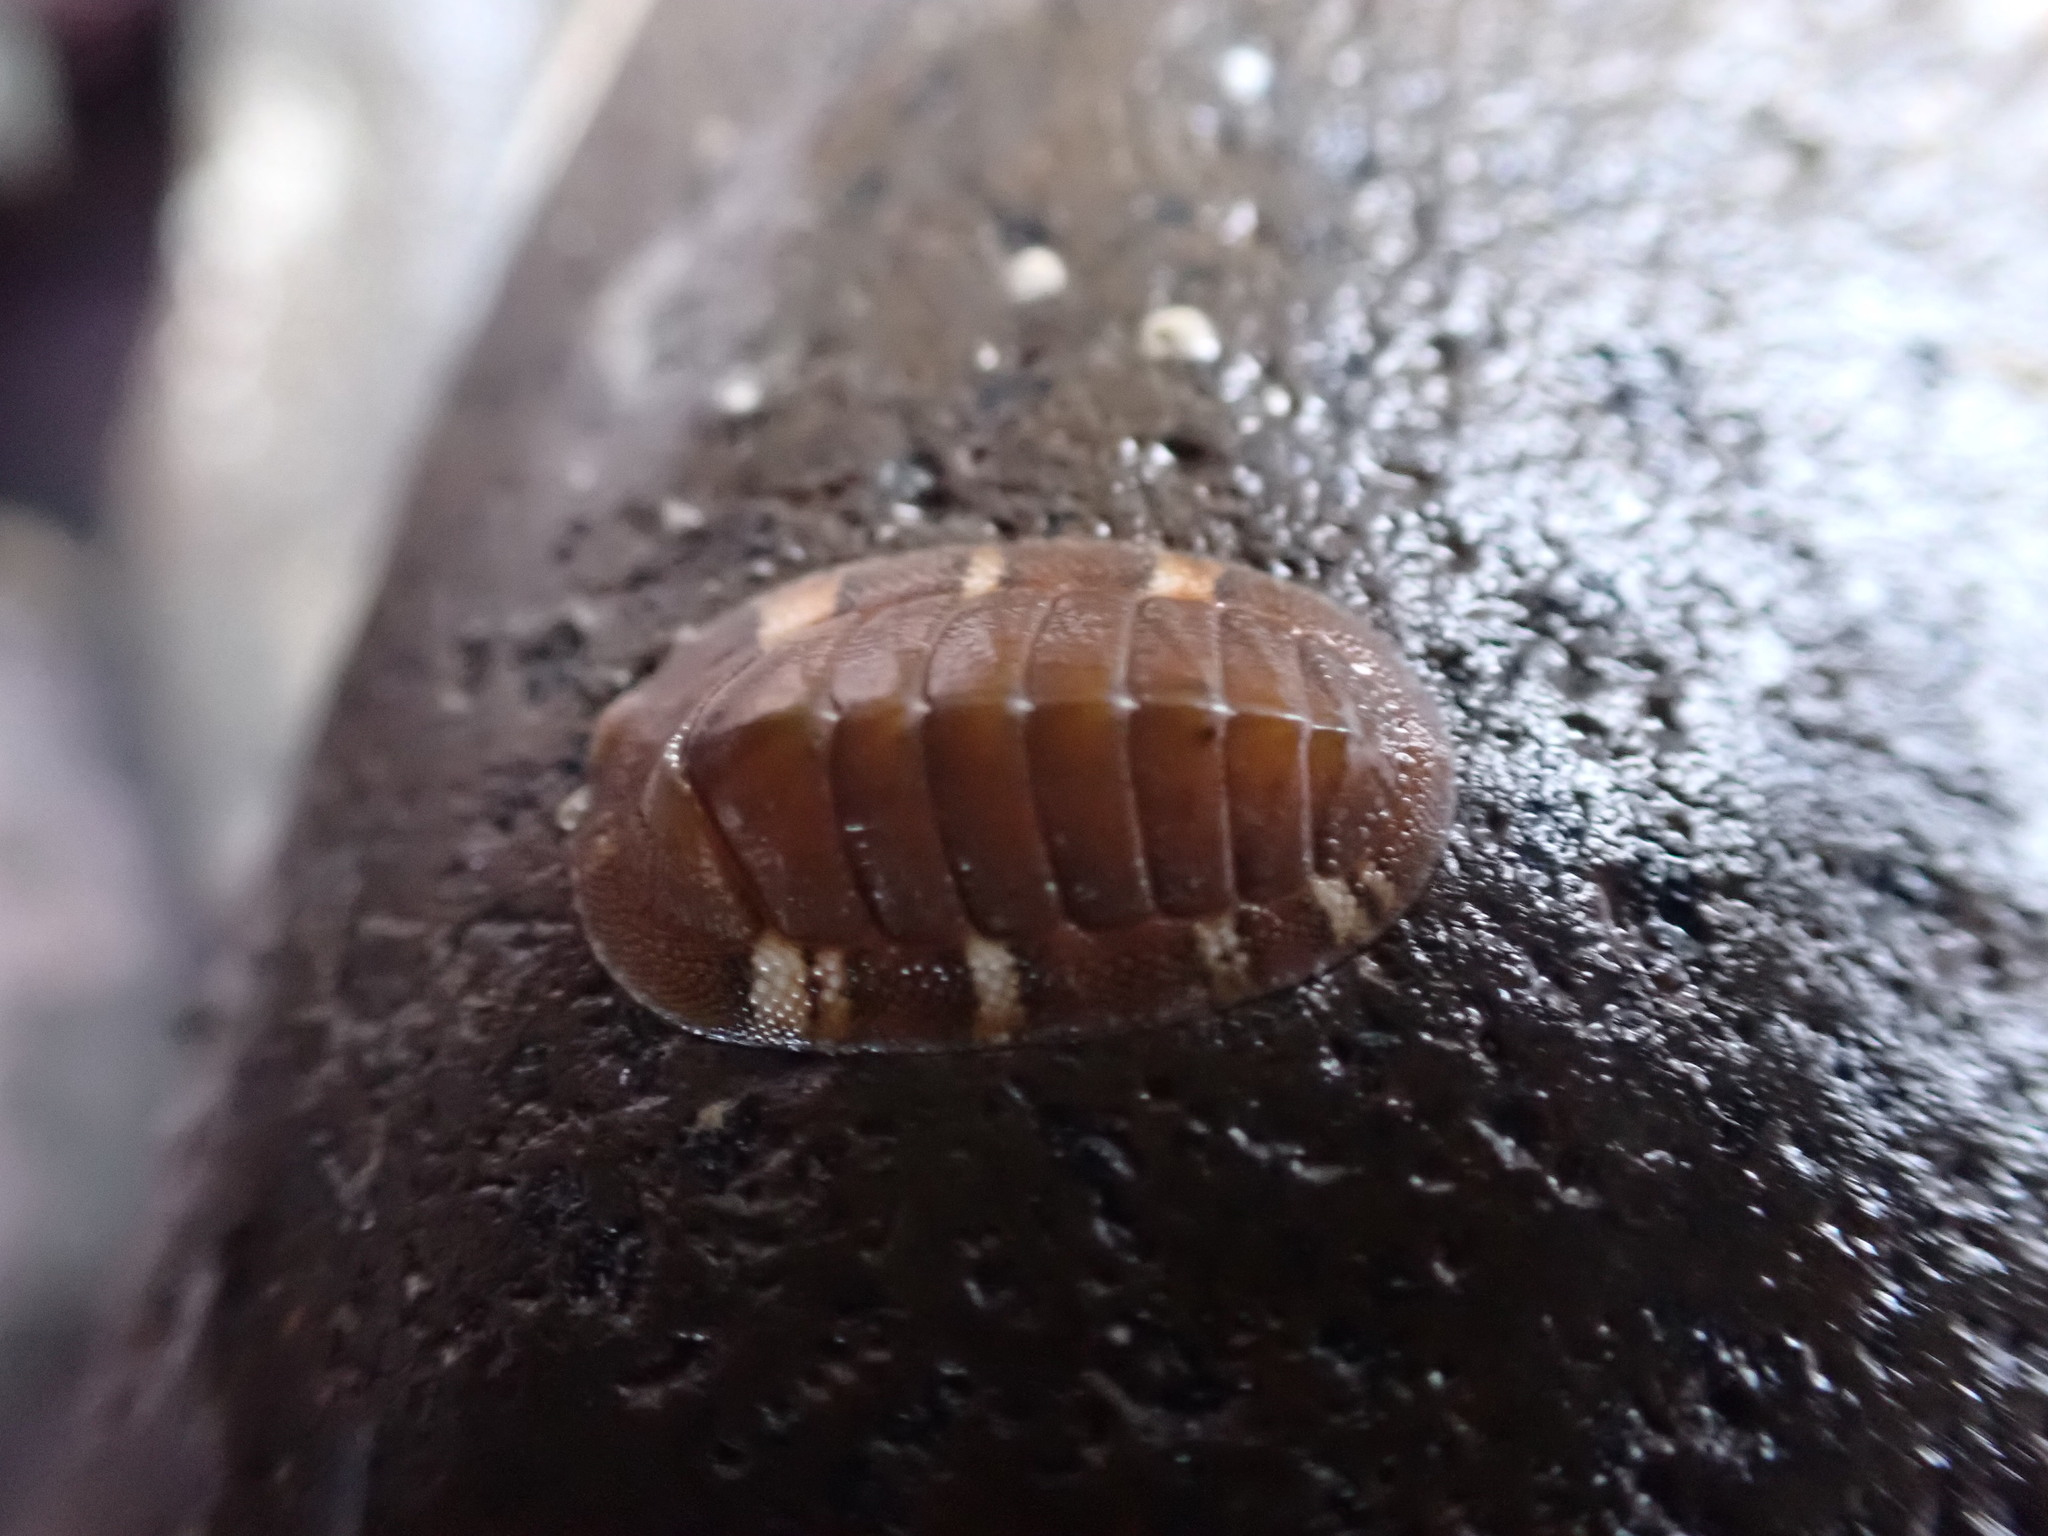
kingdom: Animalia
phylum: Mollusca
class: Polyplacophora
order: Chitonida
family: Chitonidae
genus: Rhyssoplax
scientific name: Rhyssoplax aerea
